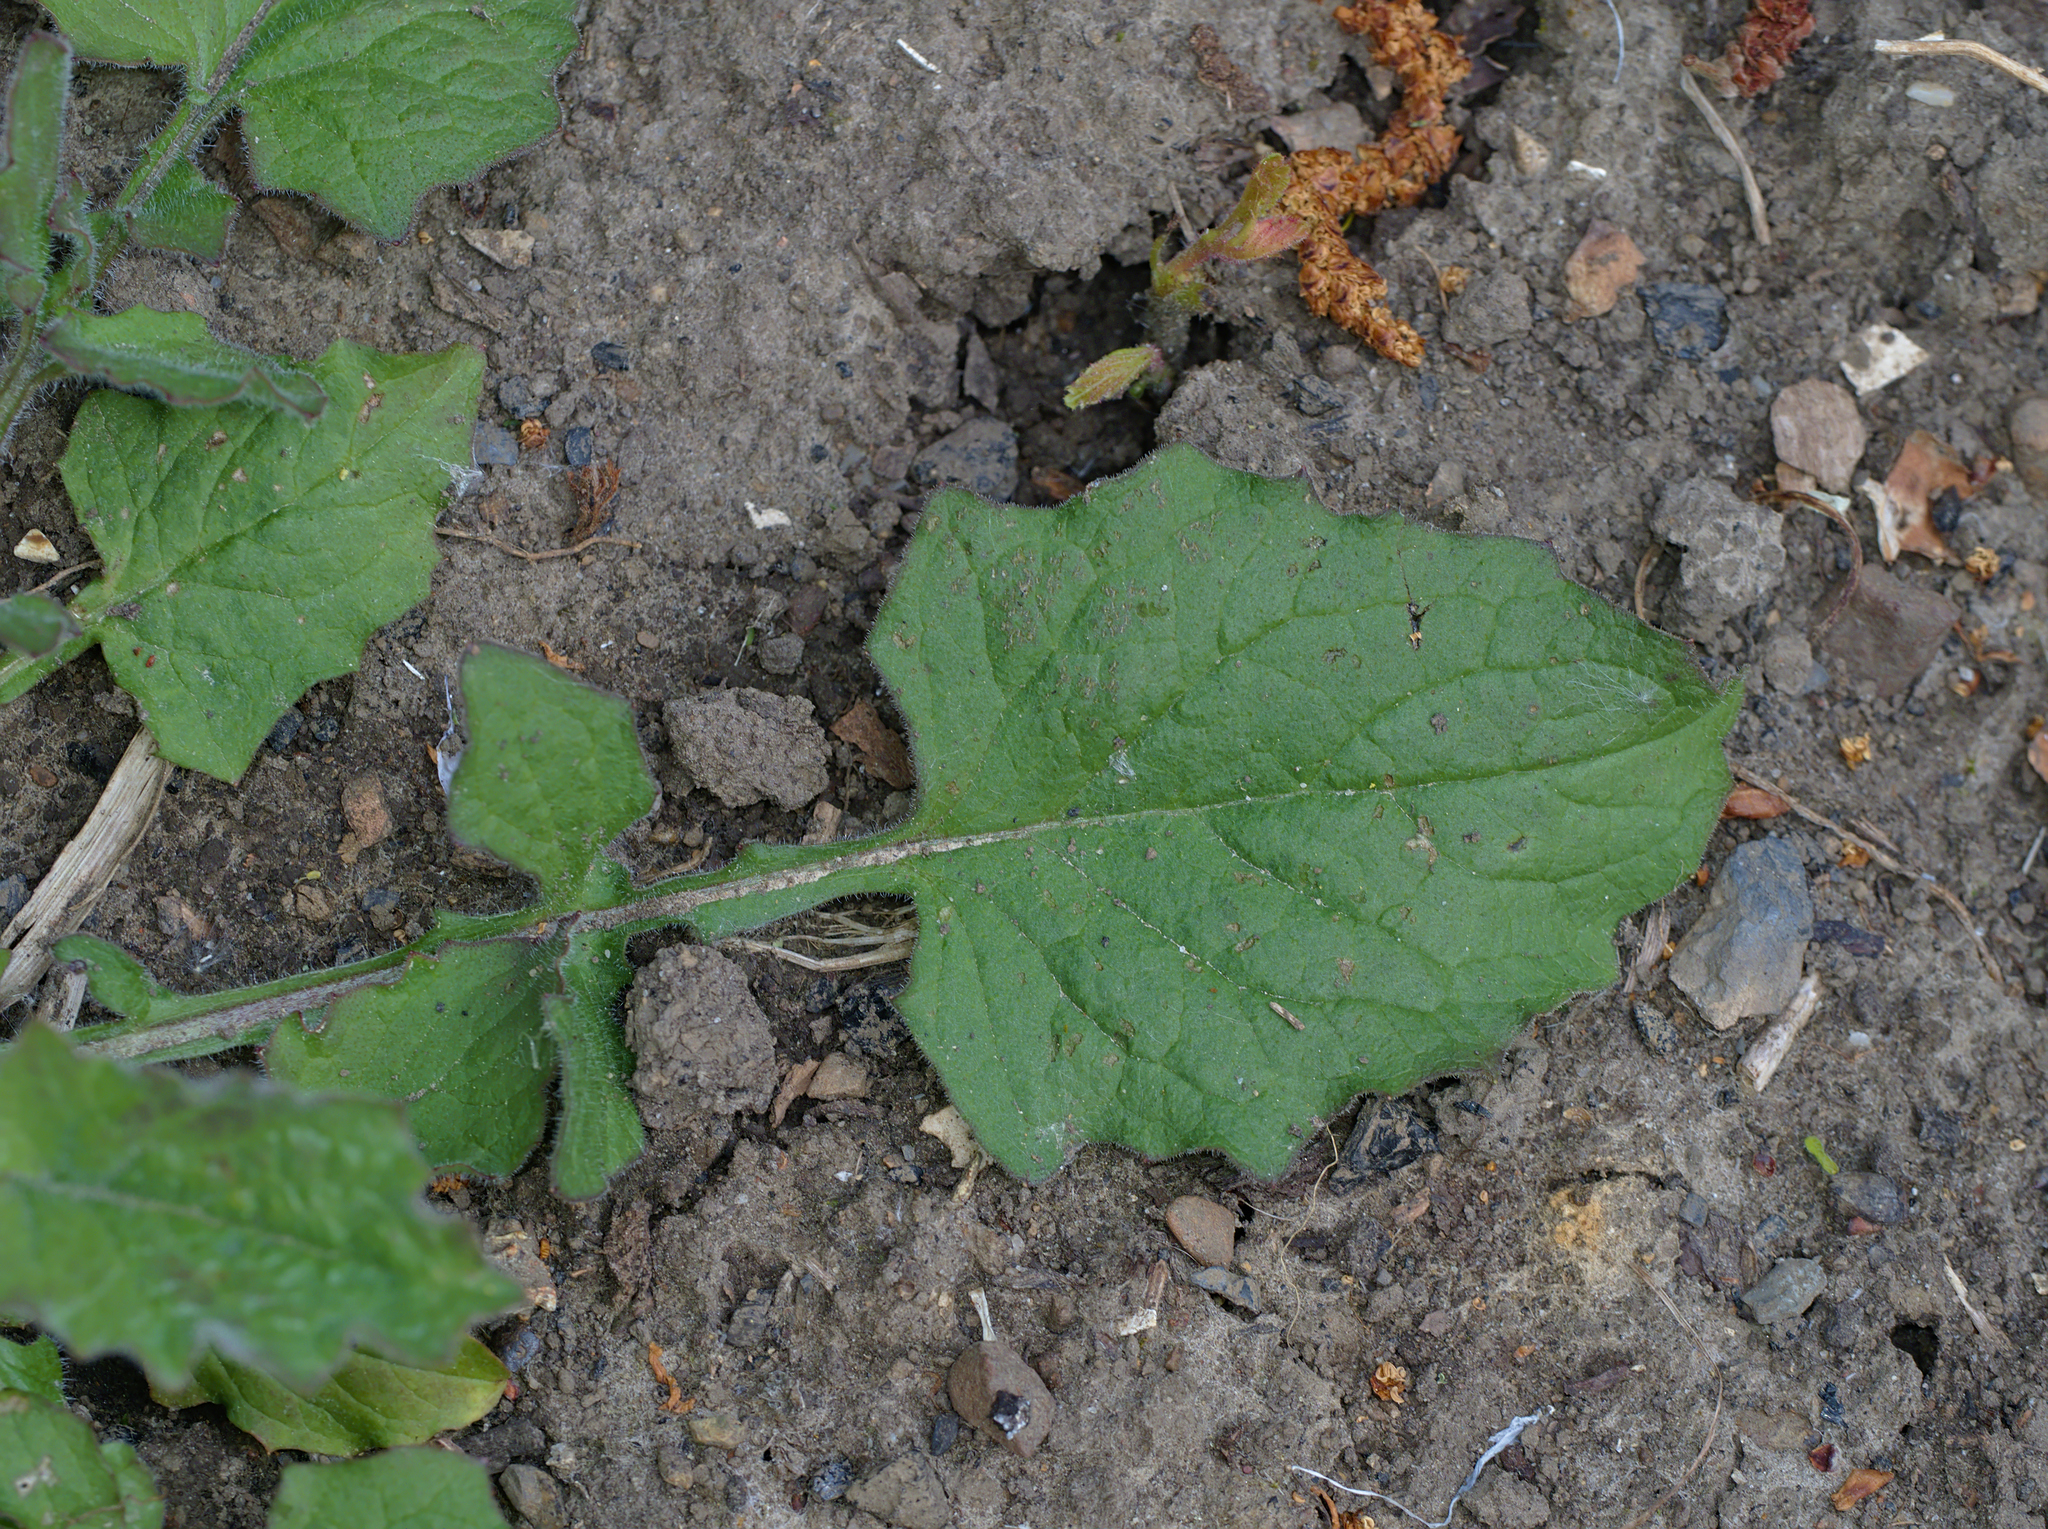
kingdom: Plantae
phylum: Tracheophyta
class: Magnoliopsida
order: Asterales
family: Asteraceae
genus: Lapsana
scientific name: Lapsana communis
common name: Nipplewort
